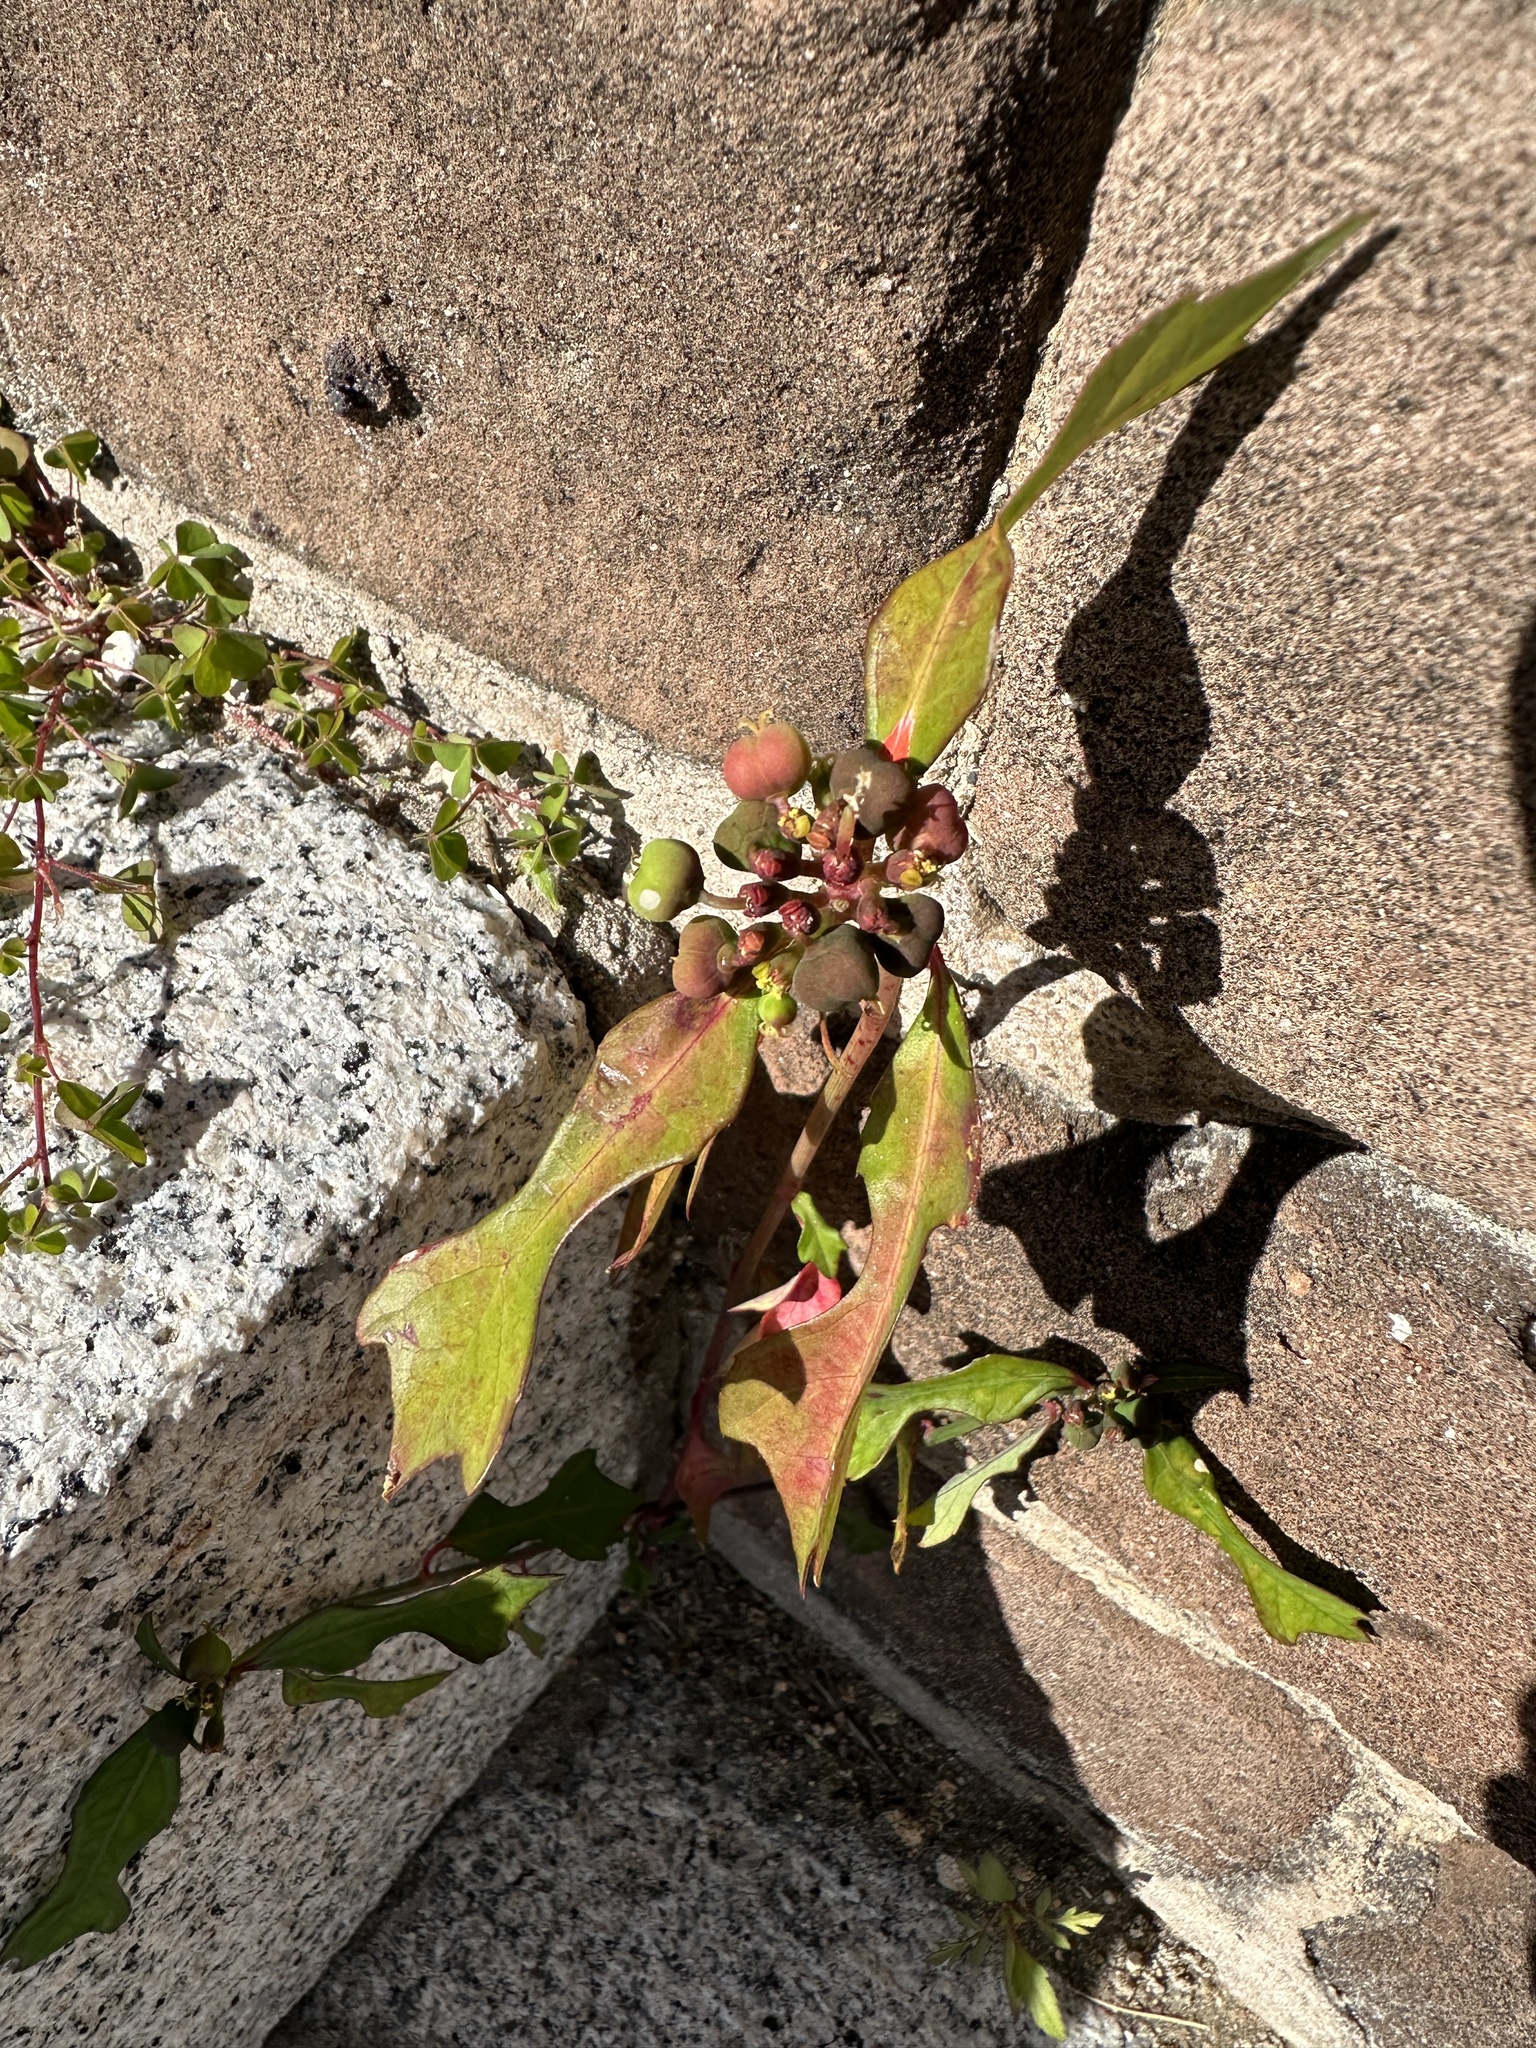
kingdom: Plantae
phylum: Tracheophyta
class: Magnoliopsida
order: Malpighiales
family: Euphorbiaceae
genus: Euphorbia
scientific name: Euphorbia heterophylla
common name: Mexican fireplant
